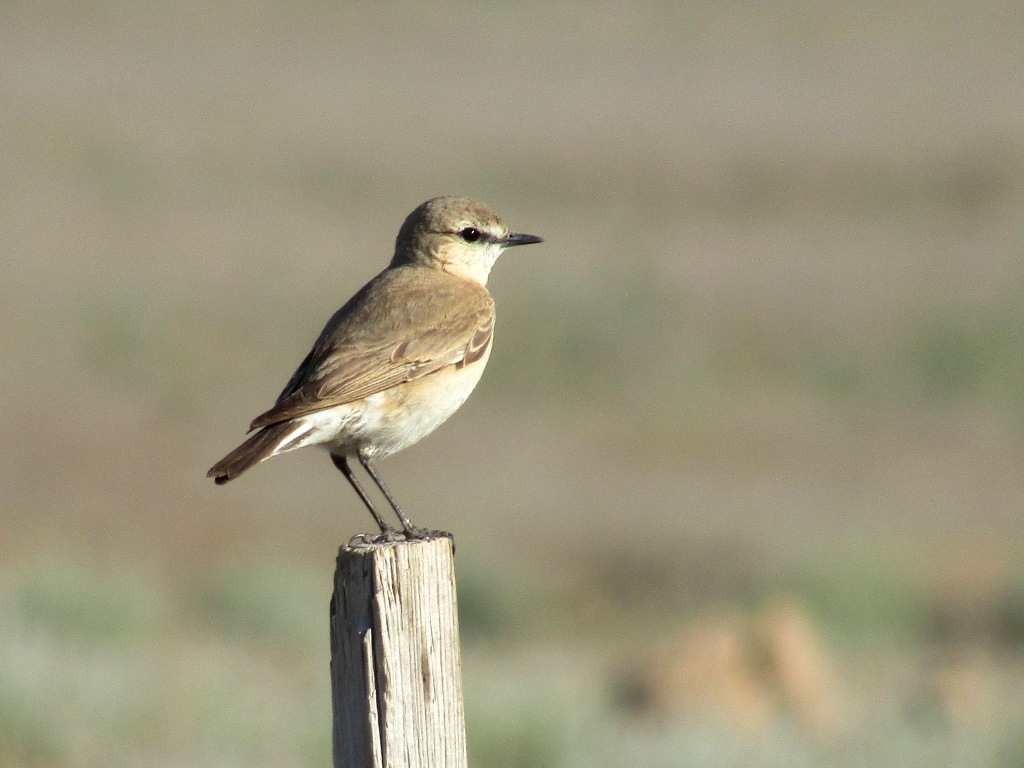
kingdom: Animalia
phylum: Chordata
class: Aves
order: Passeriformes
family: Muscicapidae
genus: Oenanthe
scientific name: Oenanthe isabellina
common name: Isabelline wheatear
